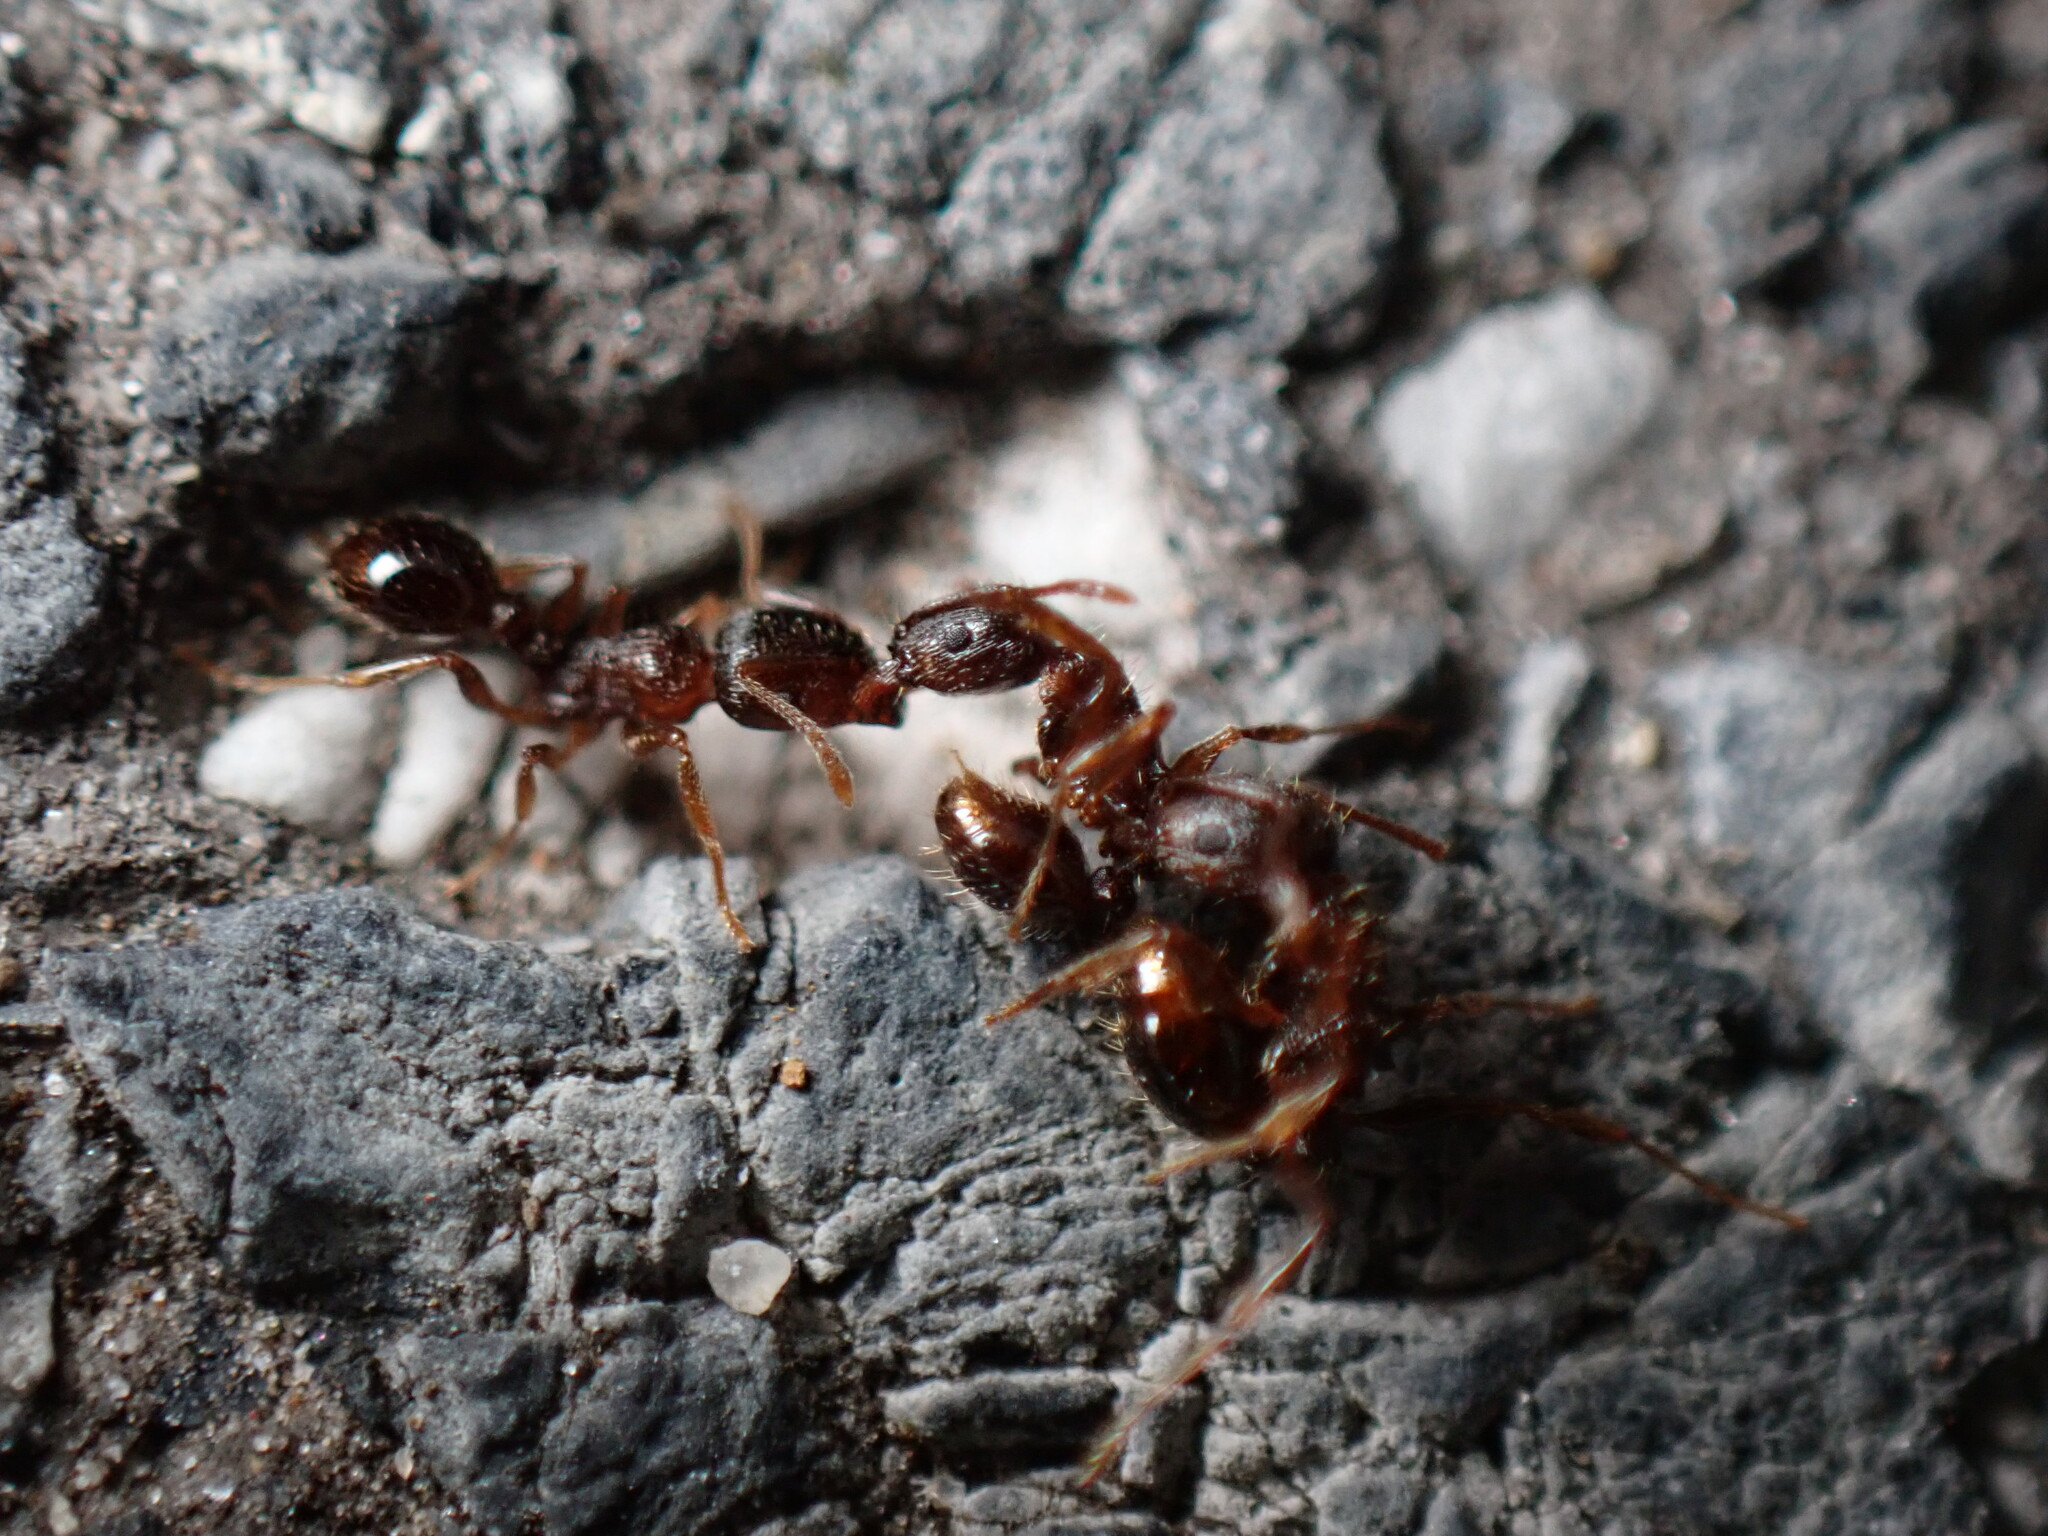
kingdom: Animalia
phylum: Arthropoda
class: Insecta
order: Hymenoptera
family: Formicidae
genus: Tetramorium
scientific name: Tetramorium immigrans
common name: Pavement ant
